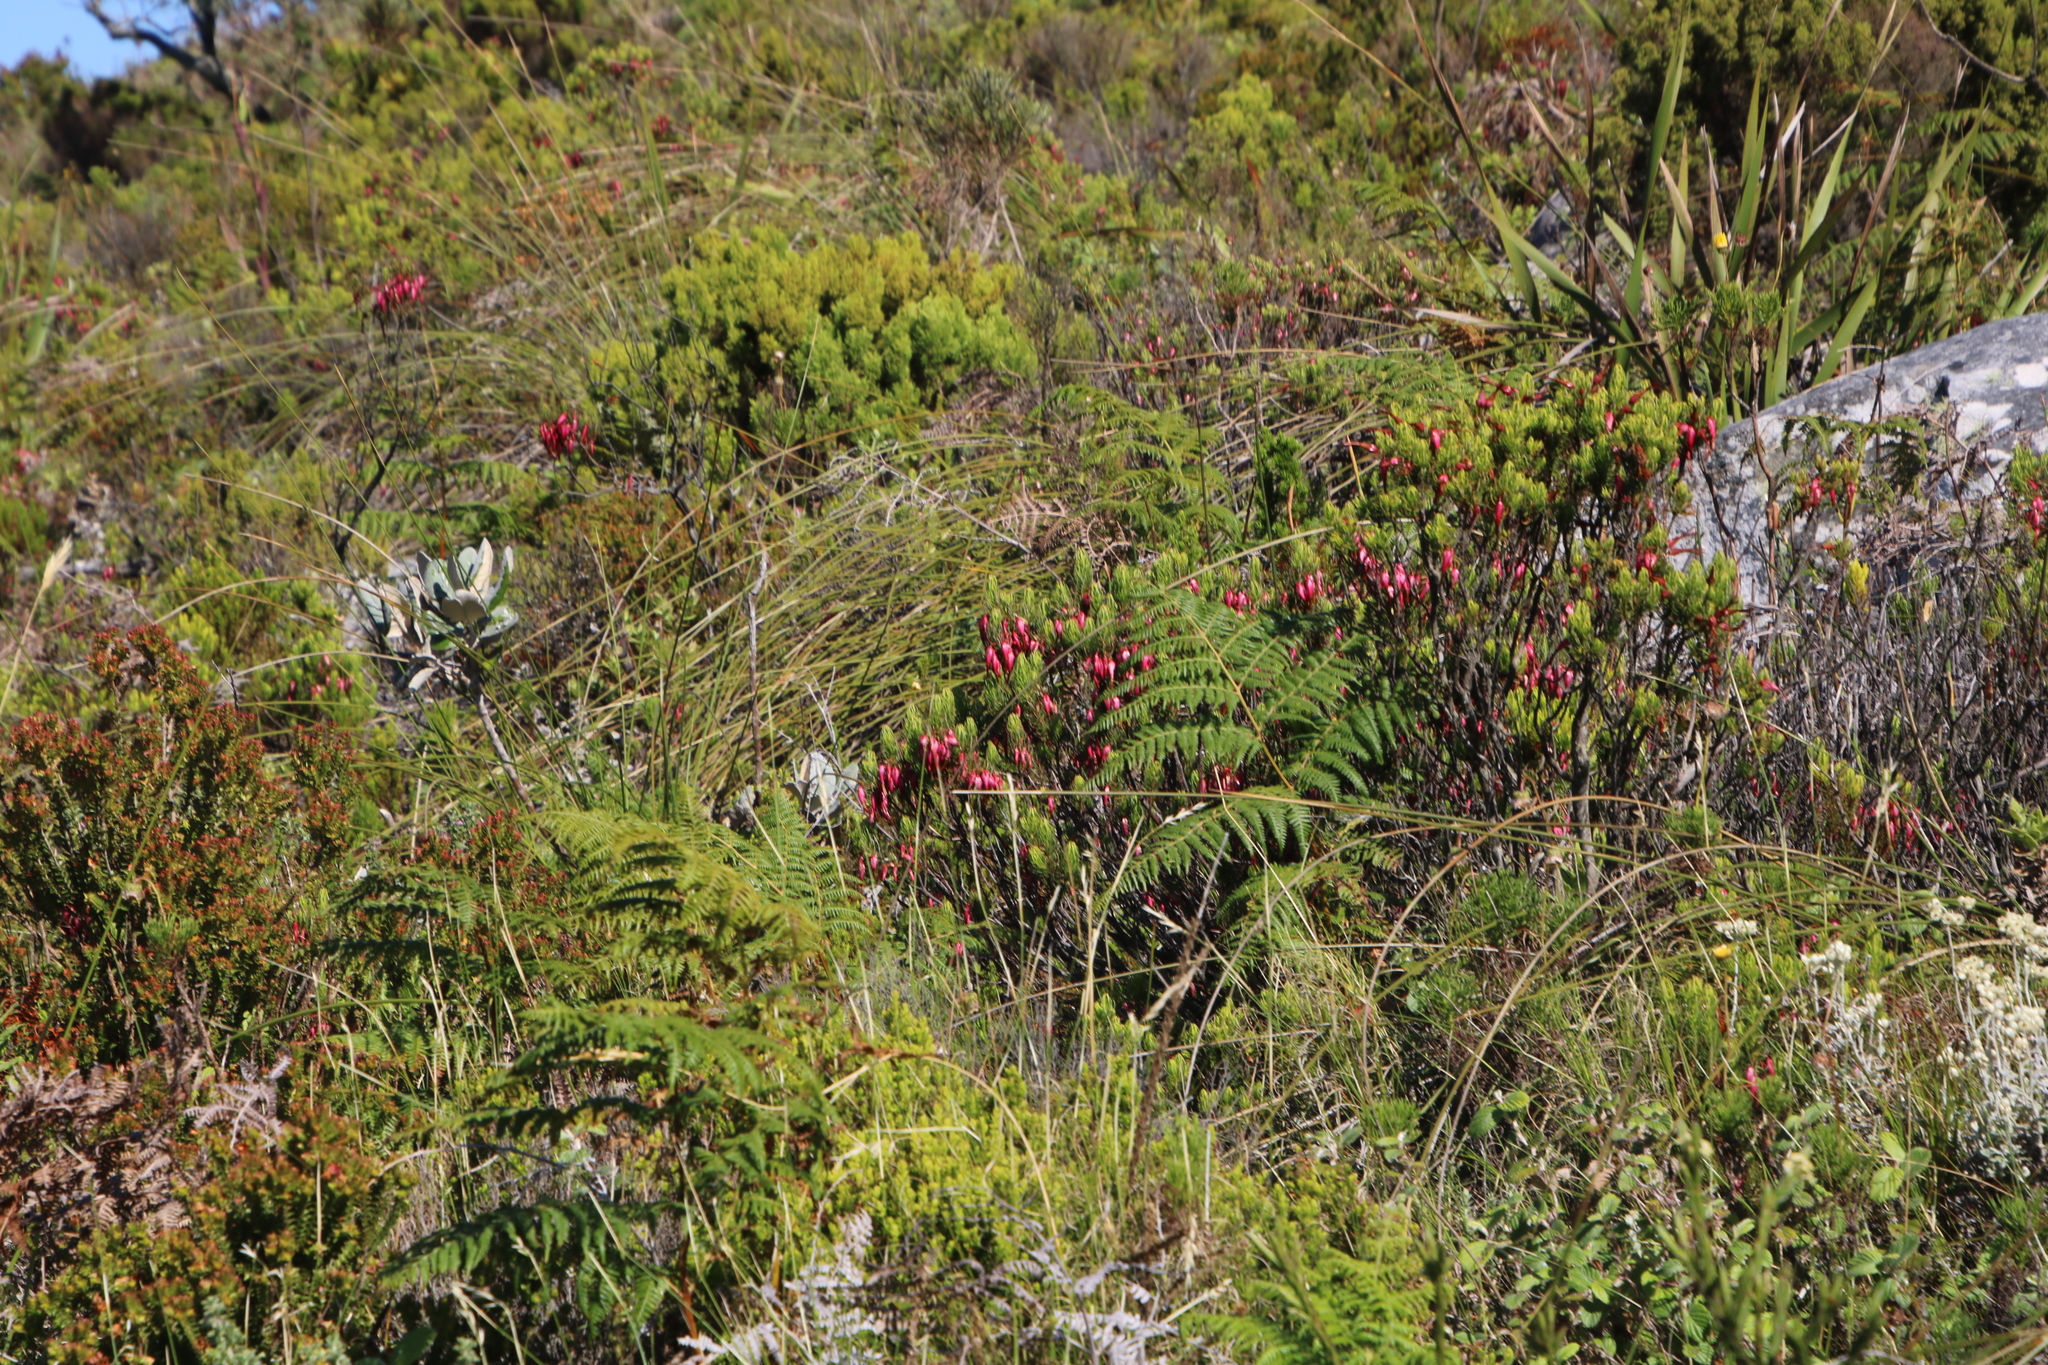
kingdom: Plantae
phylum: Tracheophyta
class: Magnoliopsida
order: Ericales
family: Ericaceae
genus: Erica
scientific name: Erica plukenetii
